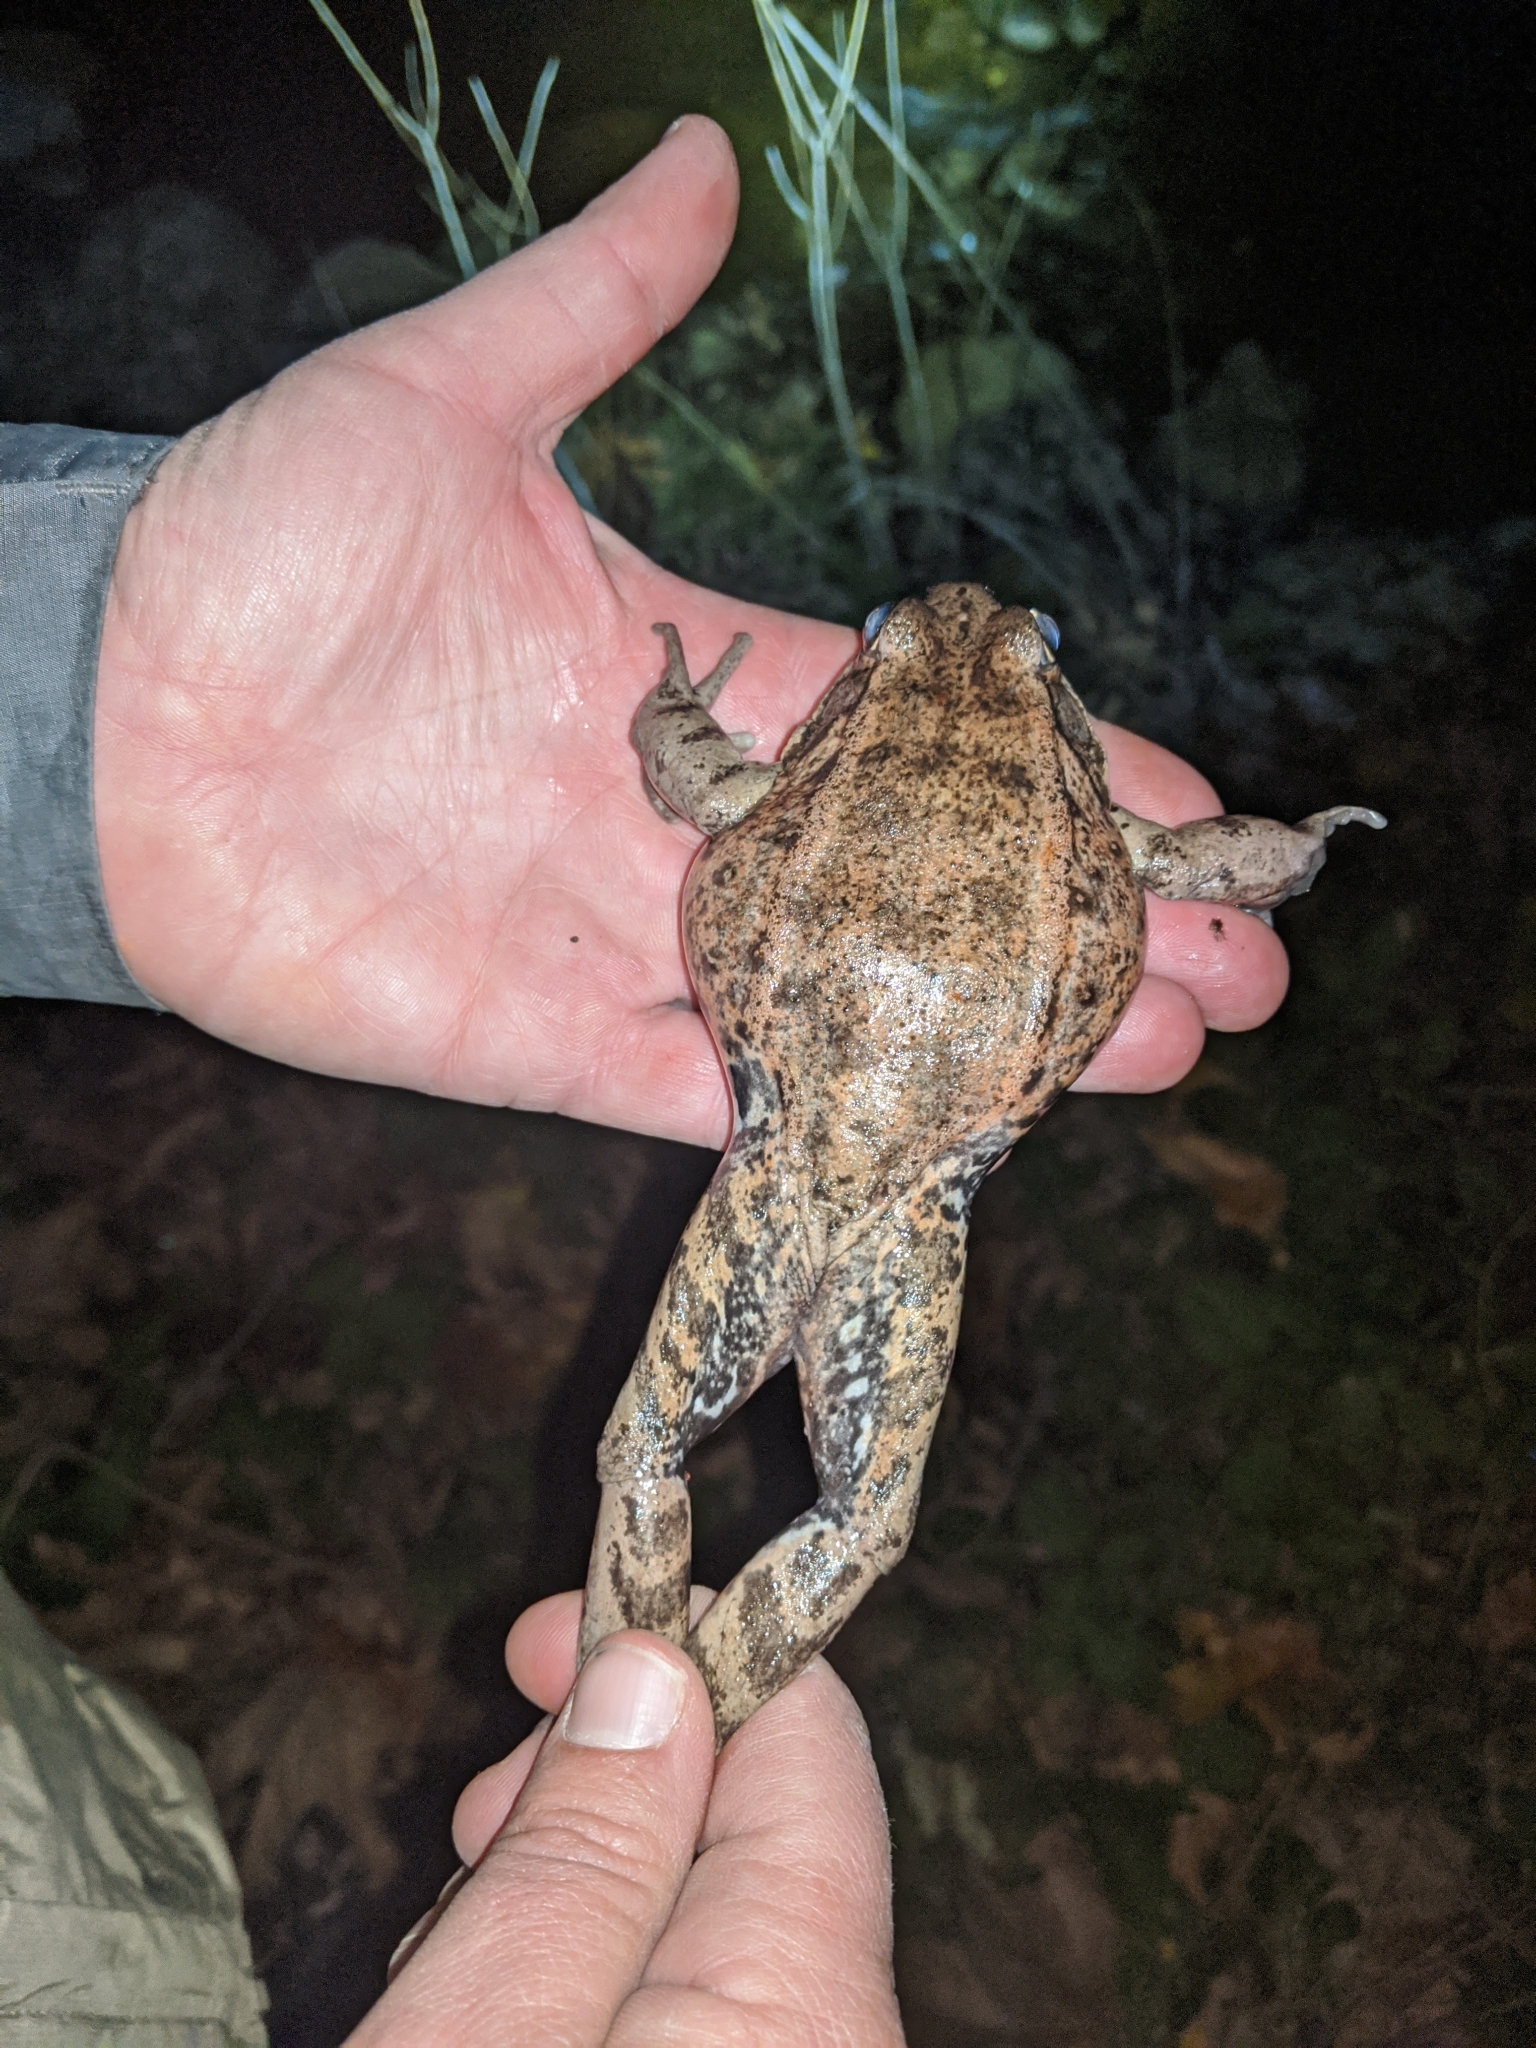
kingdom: Animalia
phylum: Chordata
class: Amphibia
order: Anura
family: Ranidae
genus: Rana
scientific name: Rana draytonii
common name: California red-legged frog
